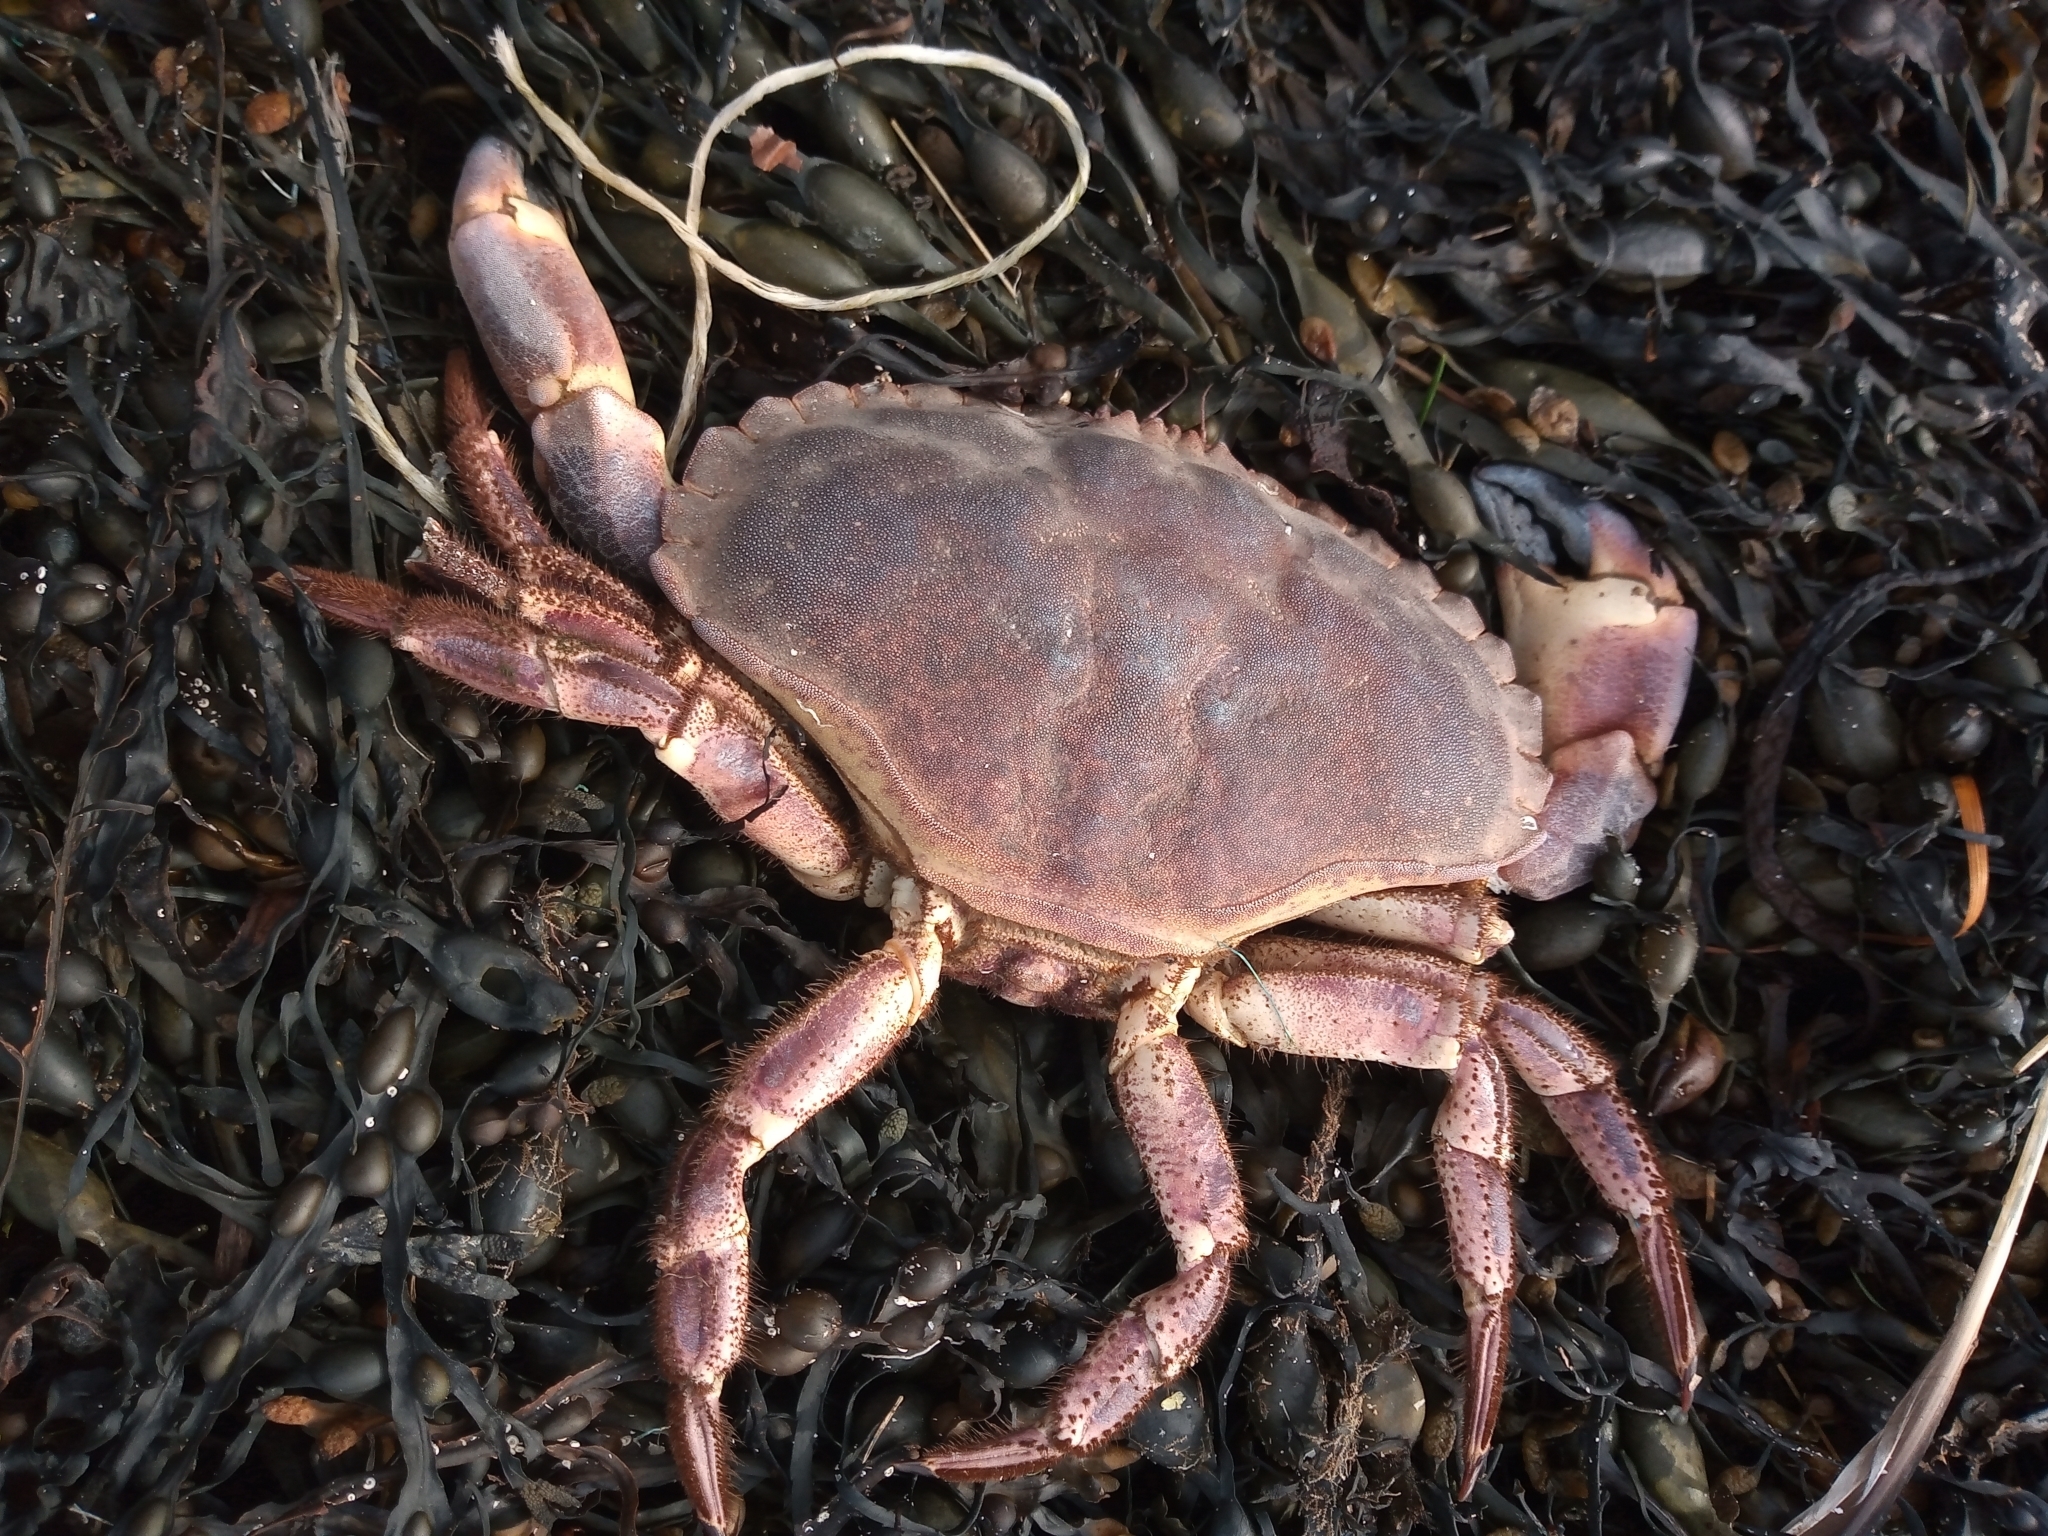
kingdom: Animalia
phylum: Arthropoda
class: Malacostraca
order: Decapoda
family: Cancridae
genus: Cancer
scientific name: Cancer pagurus
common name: Edible crab
